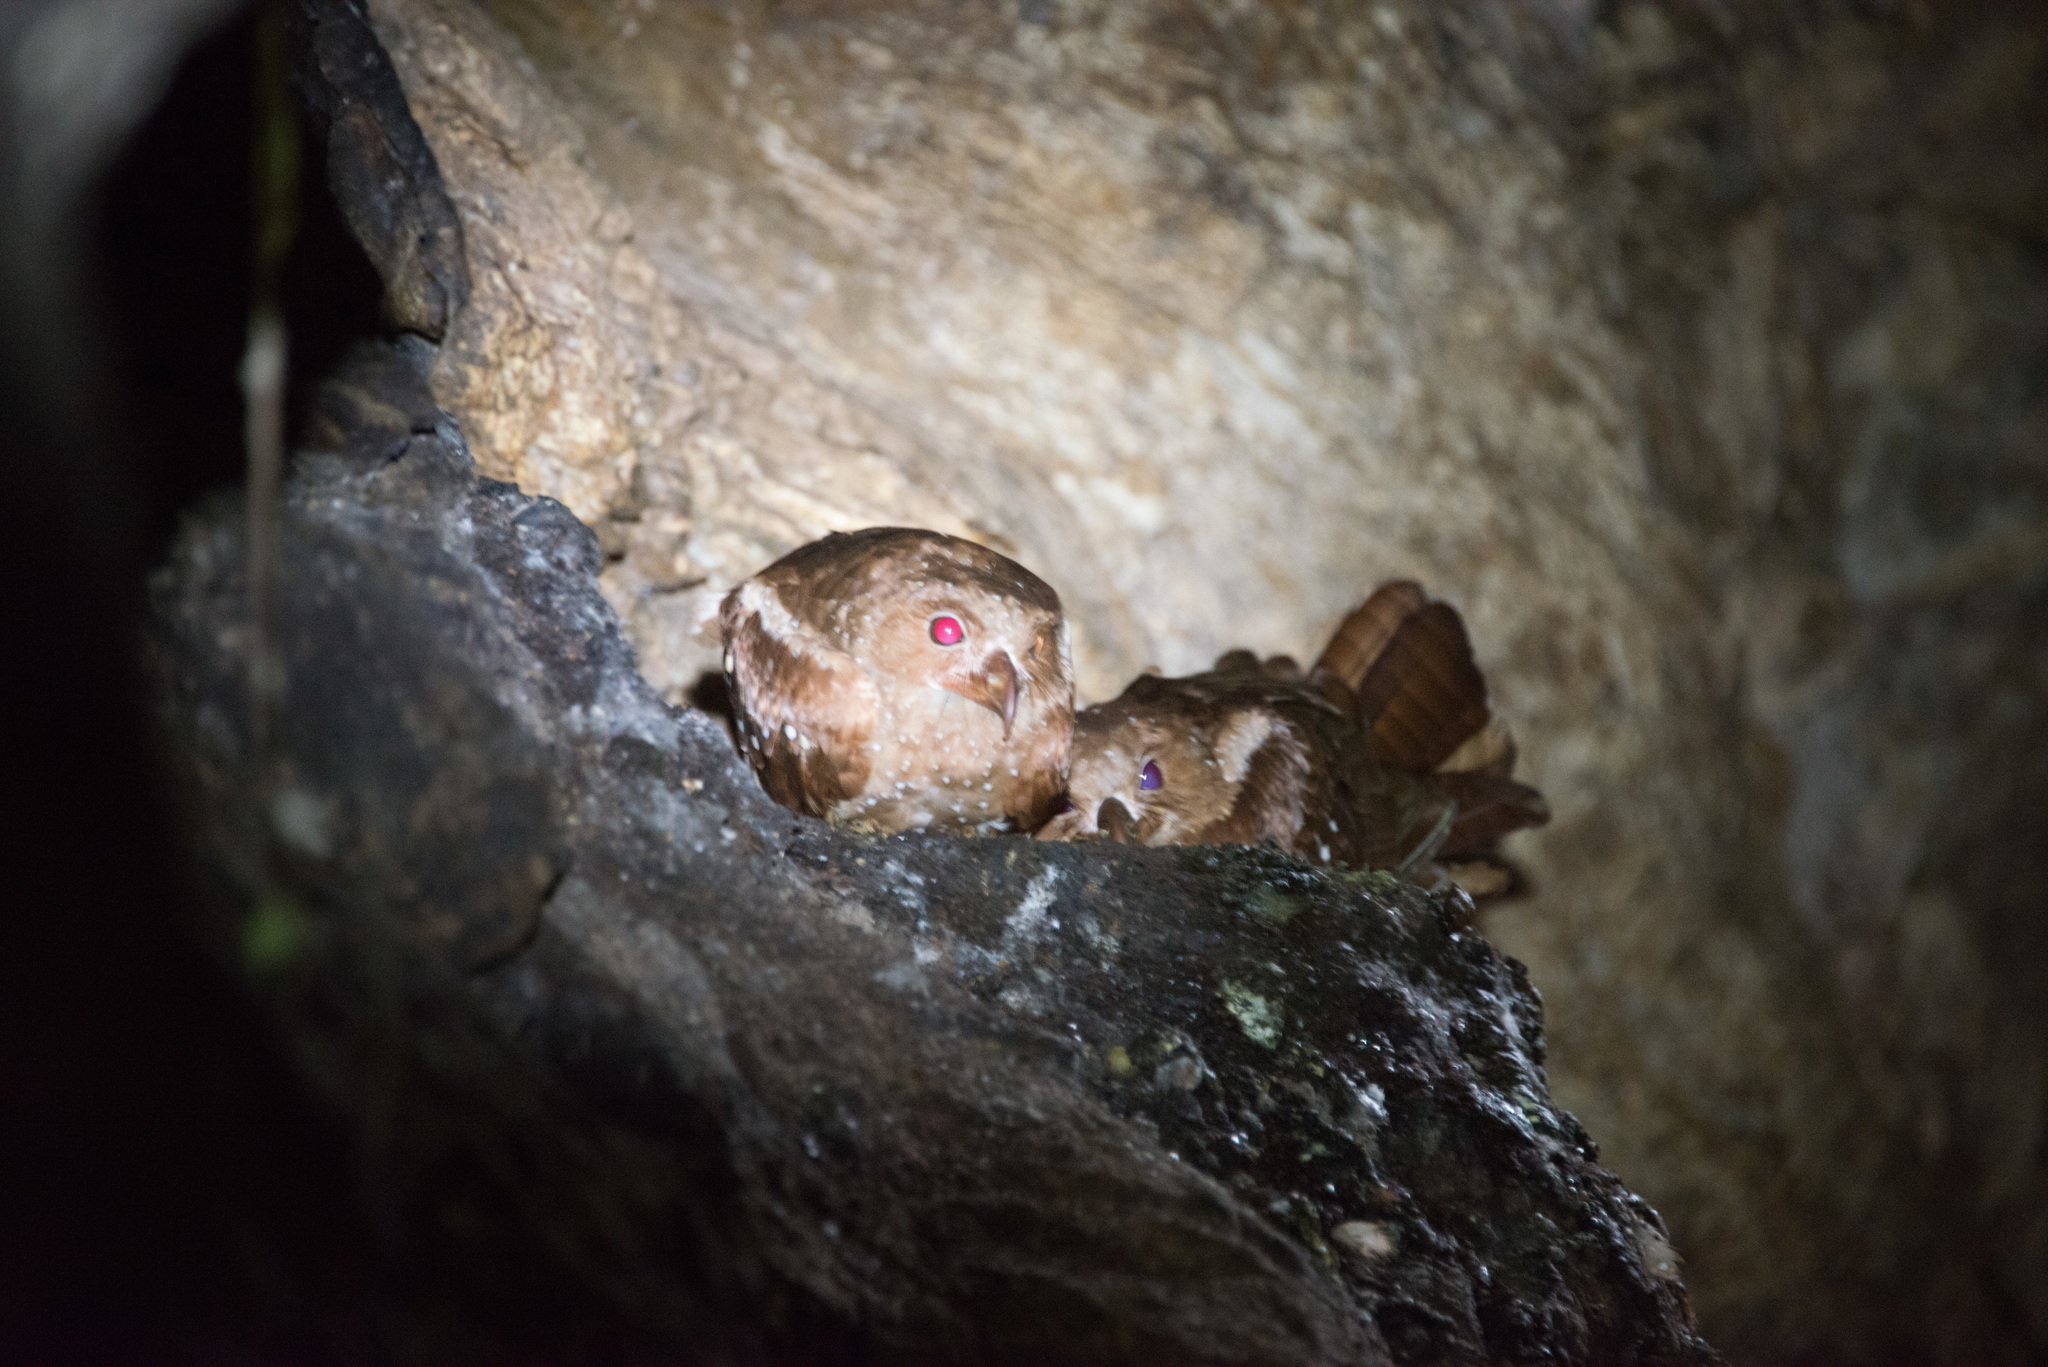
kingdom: Animalia
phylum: Chordata
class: Aves
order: Steatornithiformes
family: Steatornithidae
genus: Steatornis
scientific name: Steatornis caripensis
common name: Oilbird
